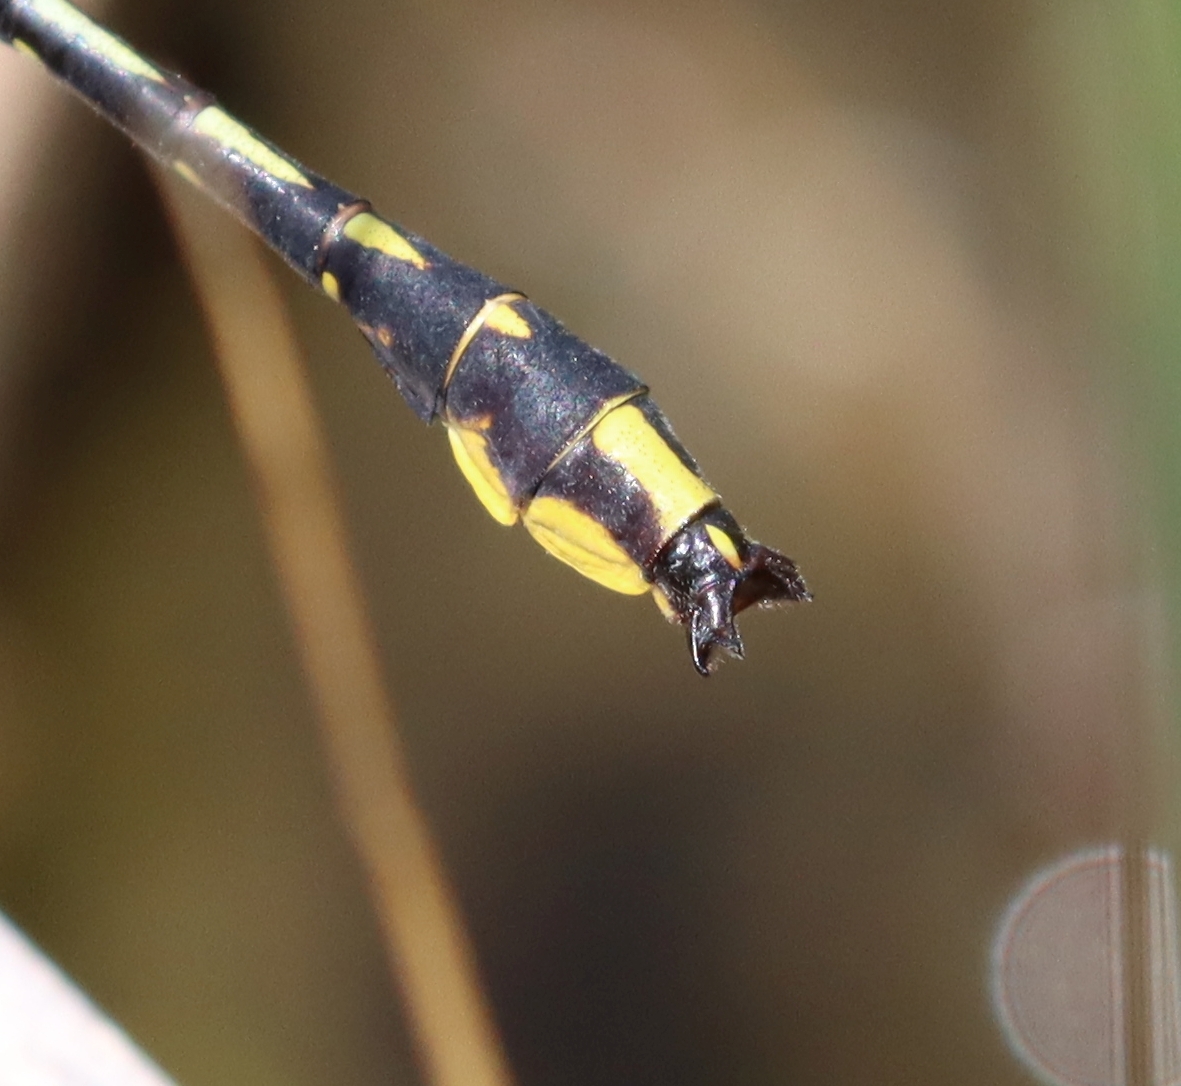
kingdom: Animalia
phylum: Arthropoda
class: Insecta
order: Odonata
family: Gomphidae
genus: Phanogomphus
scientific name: Phanogomphus graslinellus
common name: Pronghorn clubtail
